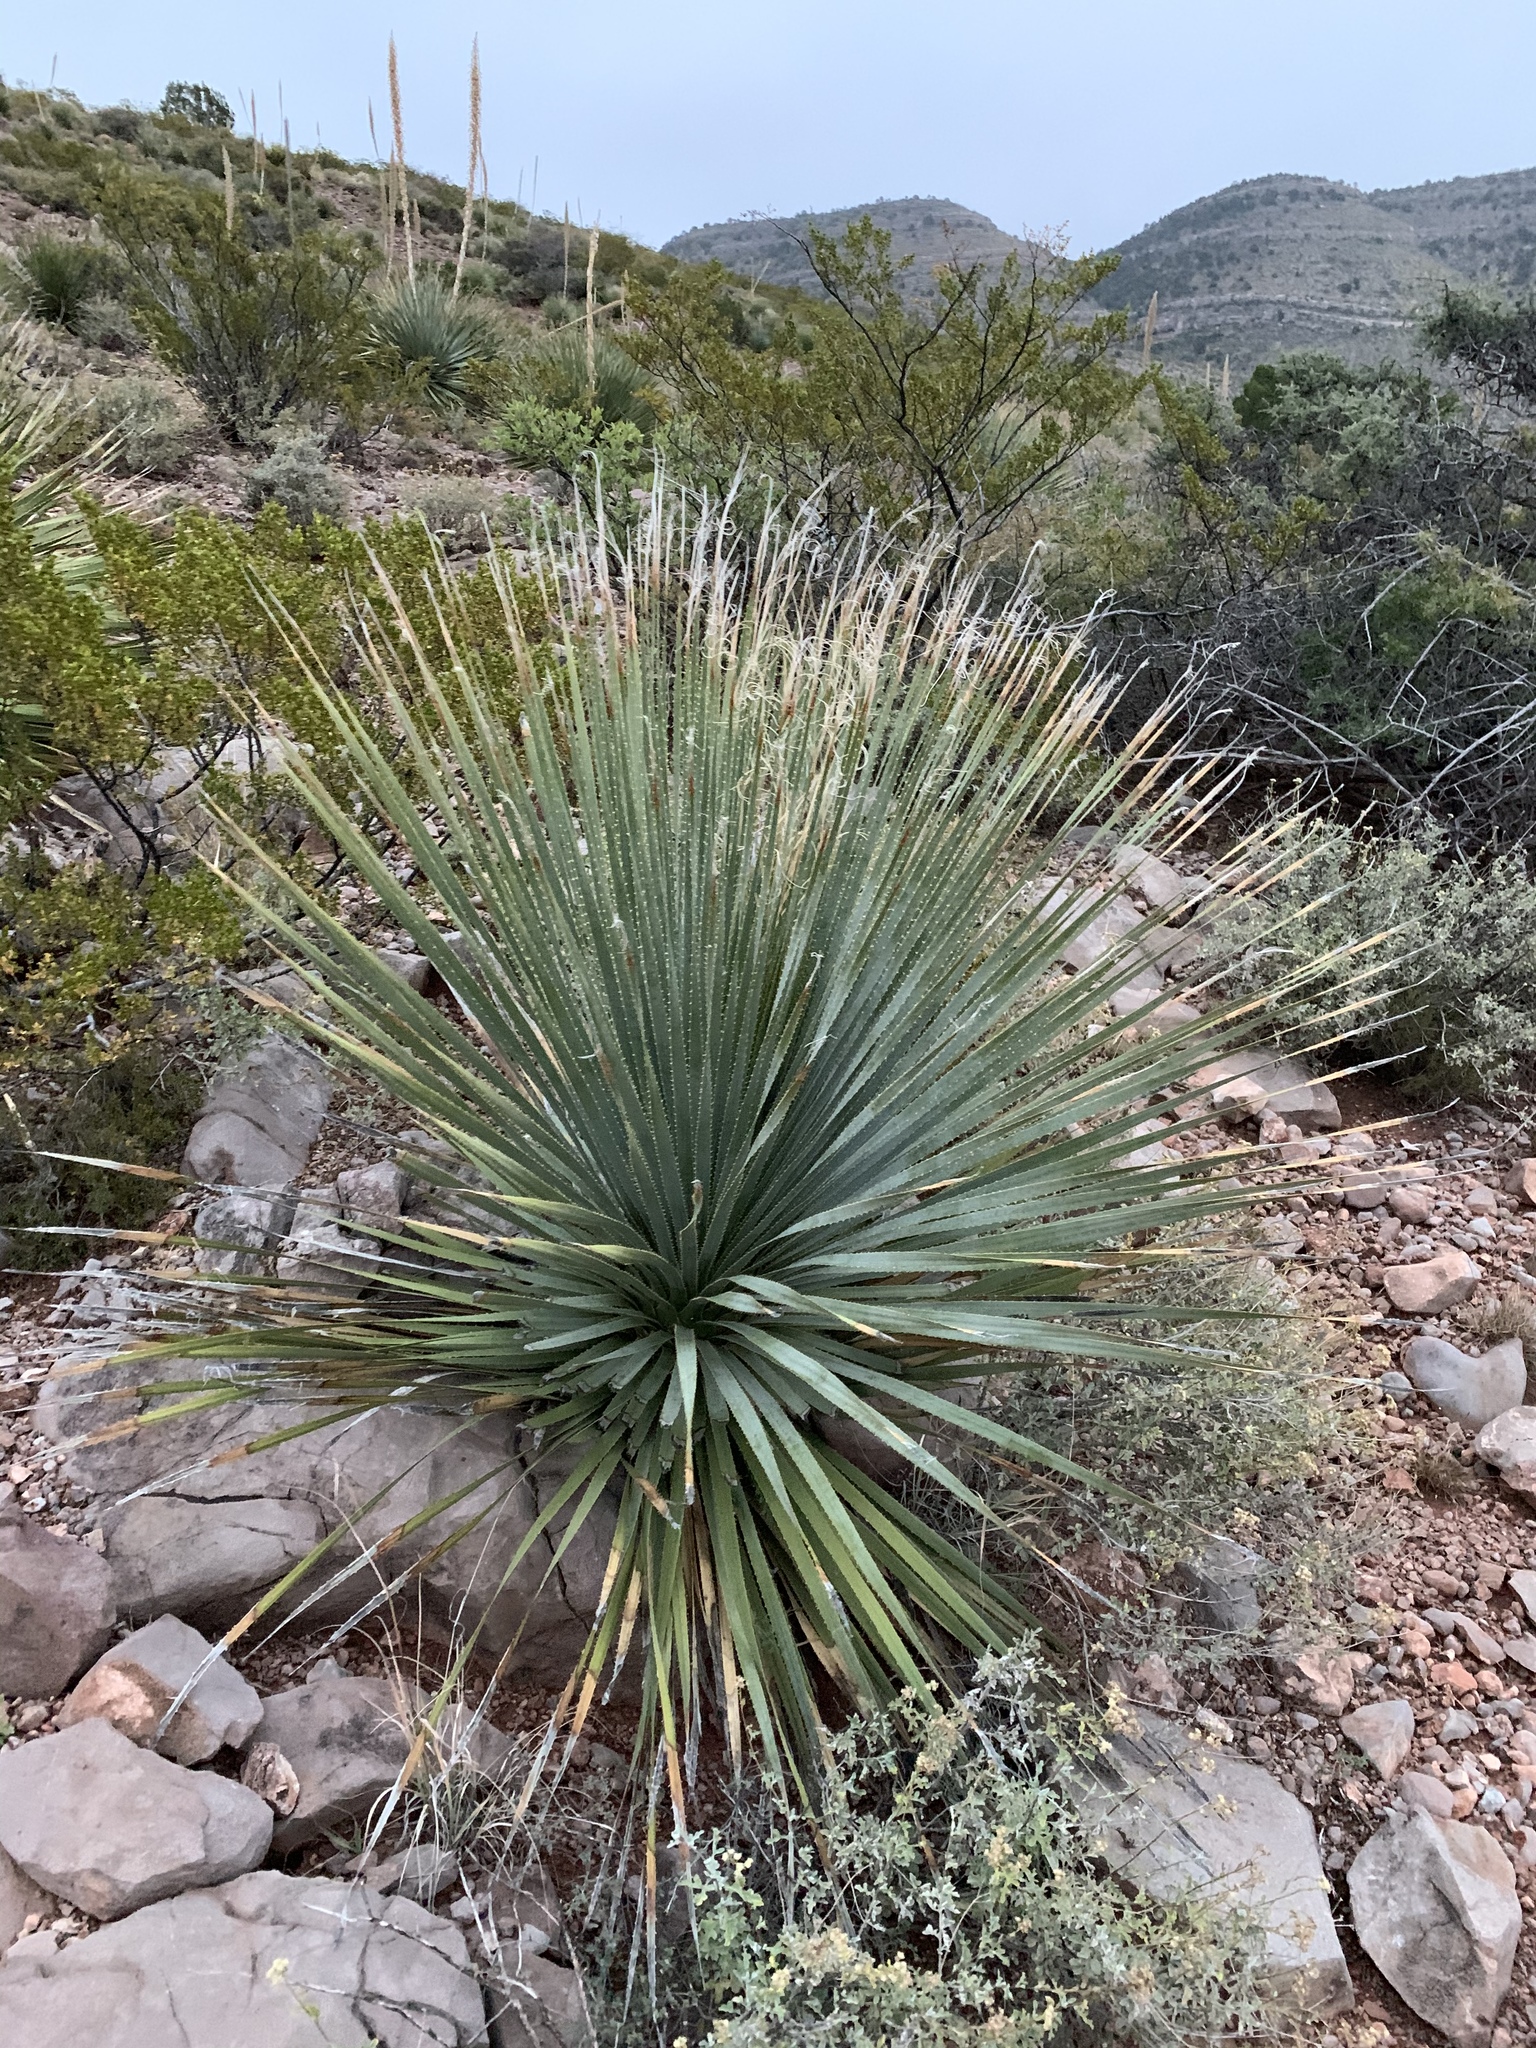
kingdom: Plantae
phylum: Tracheophyta
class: Liliopsida
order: Asparagales
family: Asparagaceae
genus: Dasylirion
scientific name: Dasylirion wheeleri
